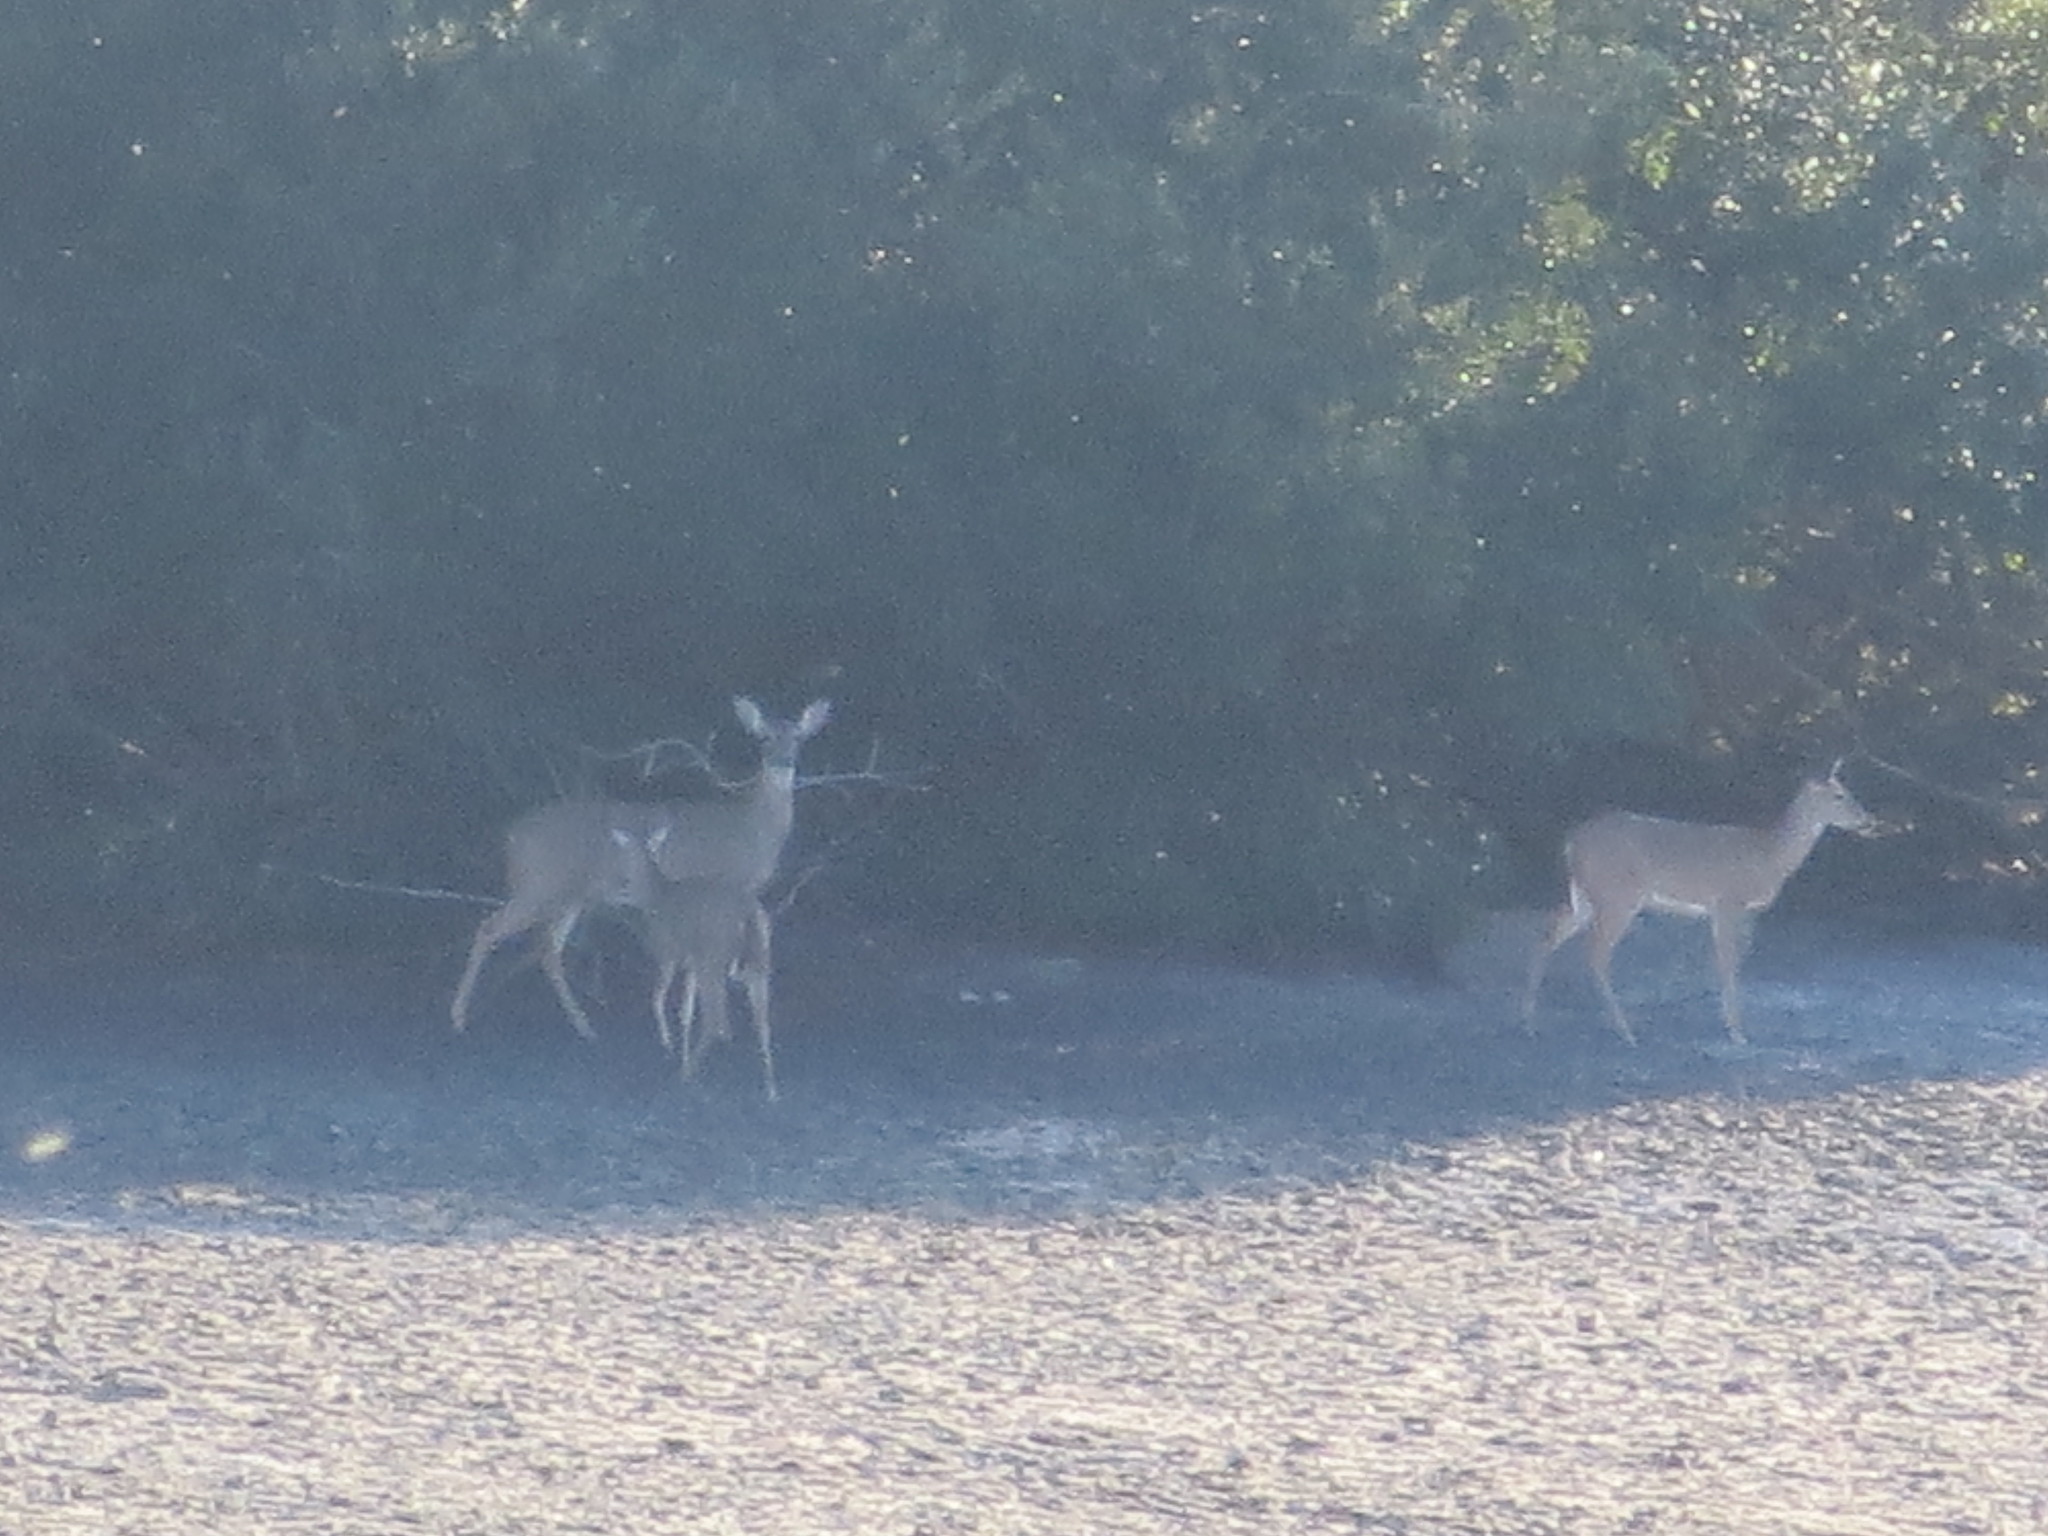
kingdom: Animalia
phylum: Chordata
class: Mammalia
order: Artiodactyla
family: Cervidae
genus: Odocoileus
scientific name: Odocoileus virginianus
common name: White-tailed deer
